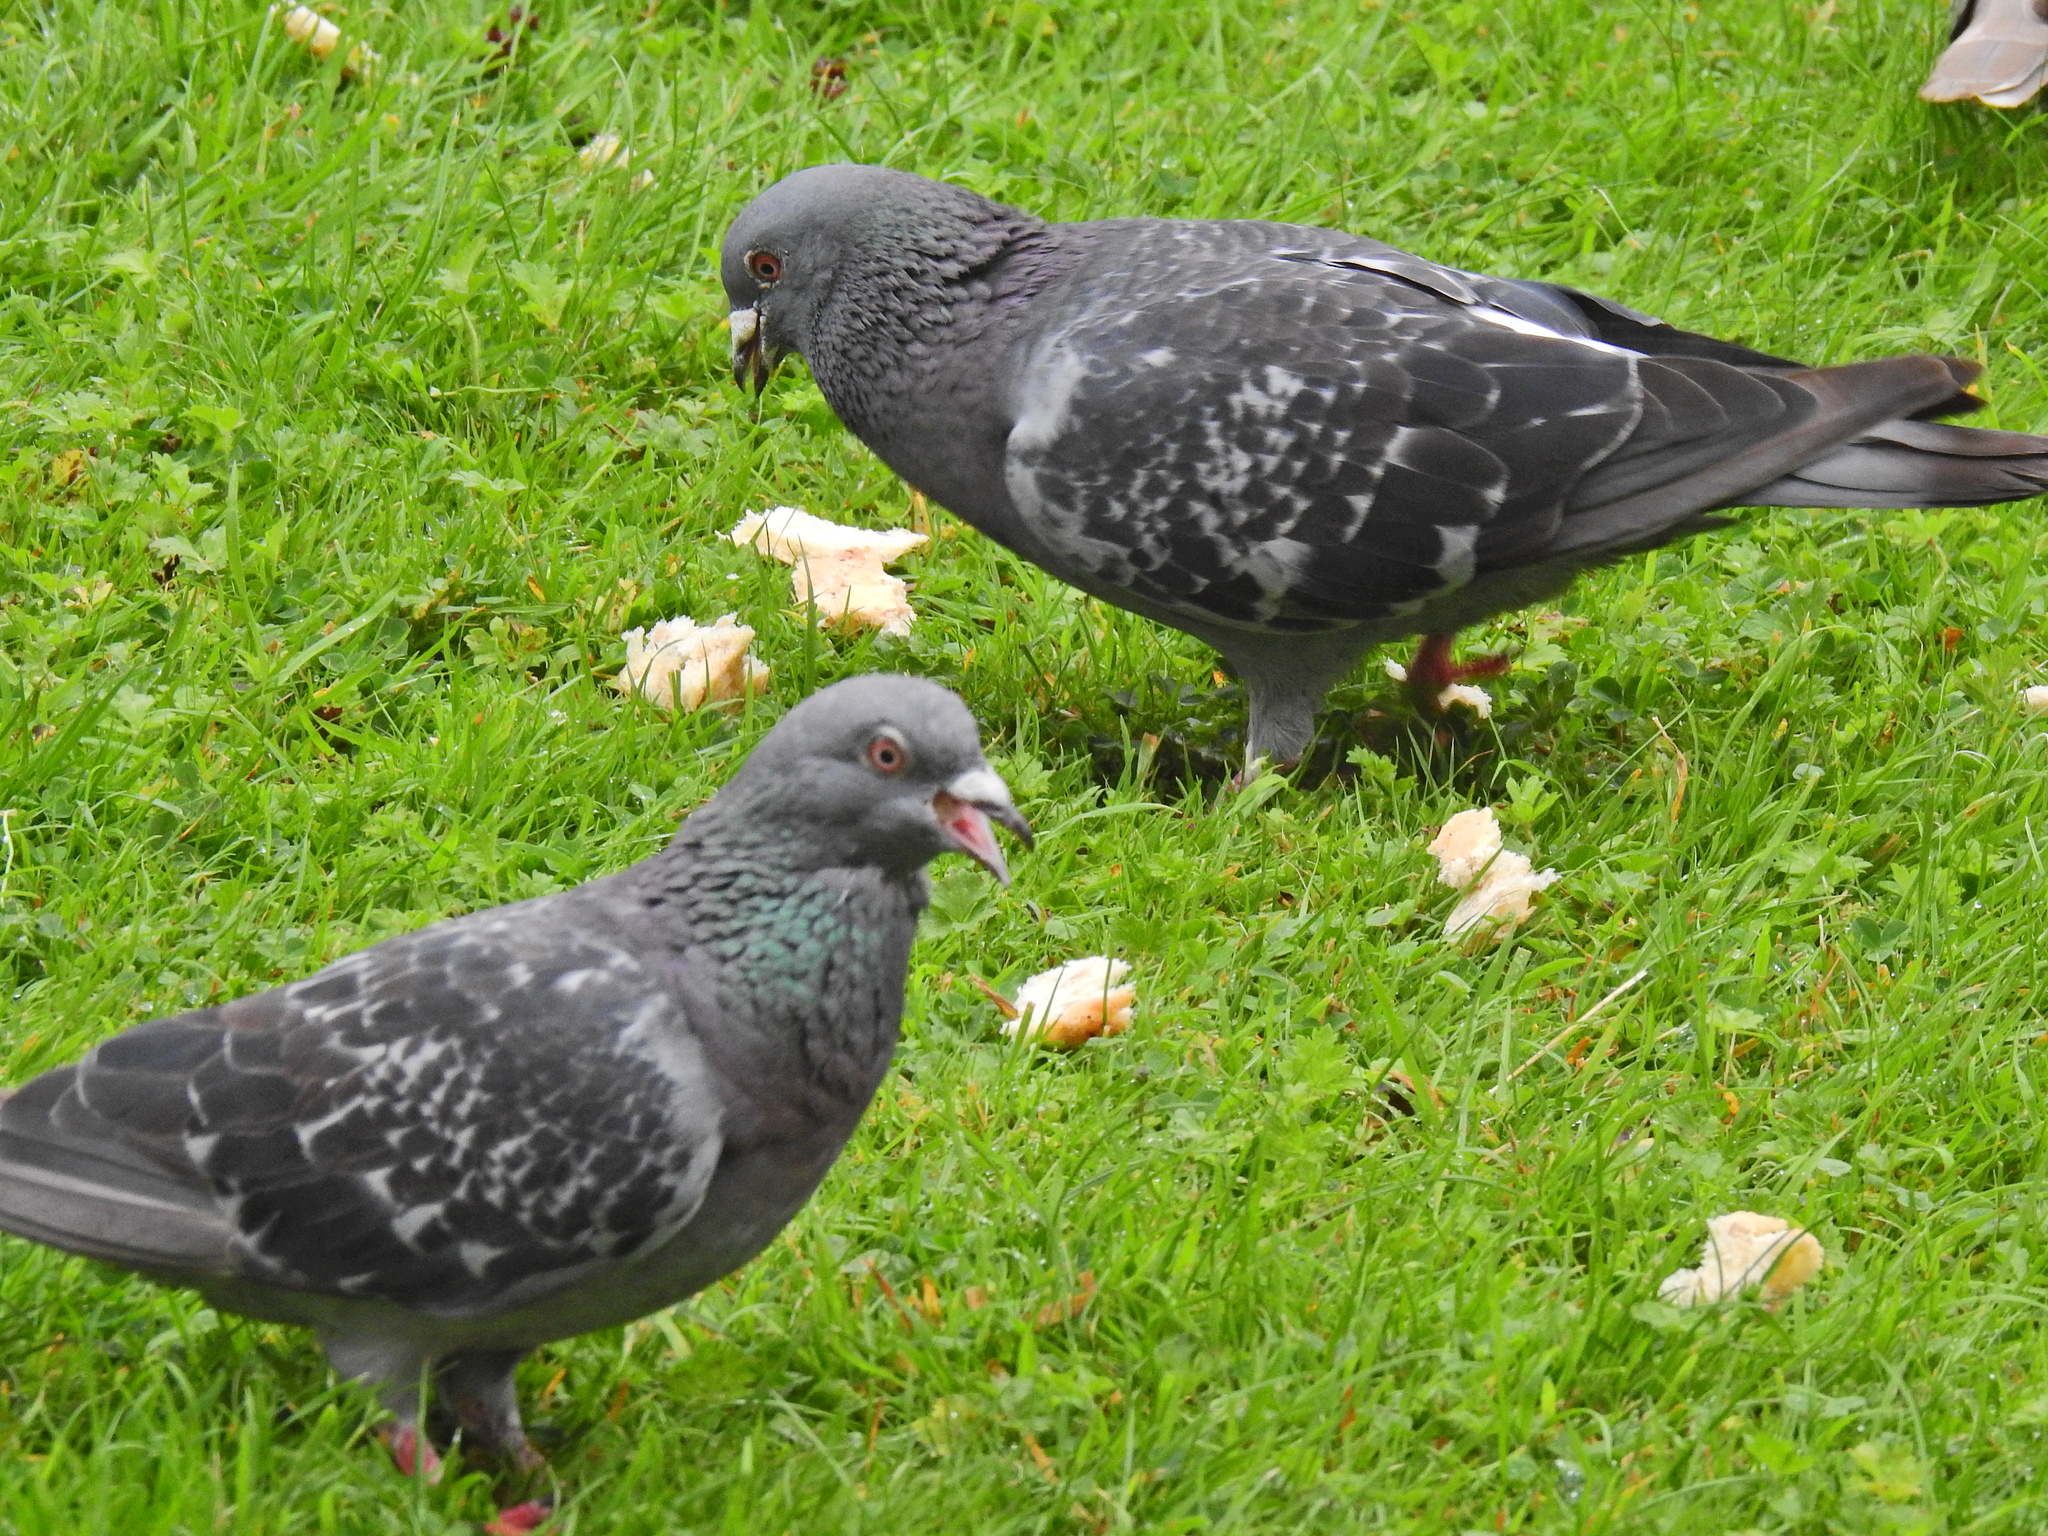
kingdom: Animalia
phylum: Chordata
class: Aves
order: Columbiformes
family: Columbidae
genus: Columba
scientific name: Columba livia
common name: Rock pigeon
